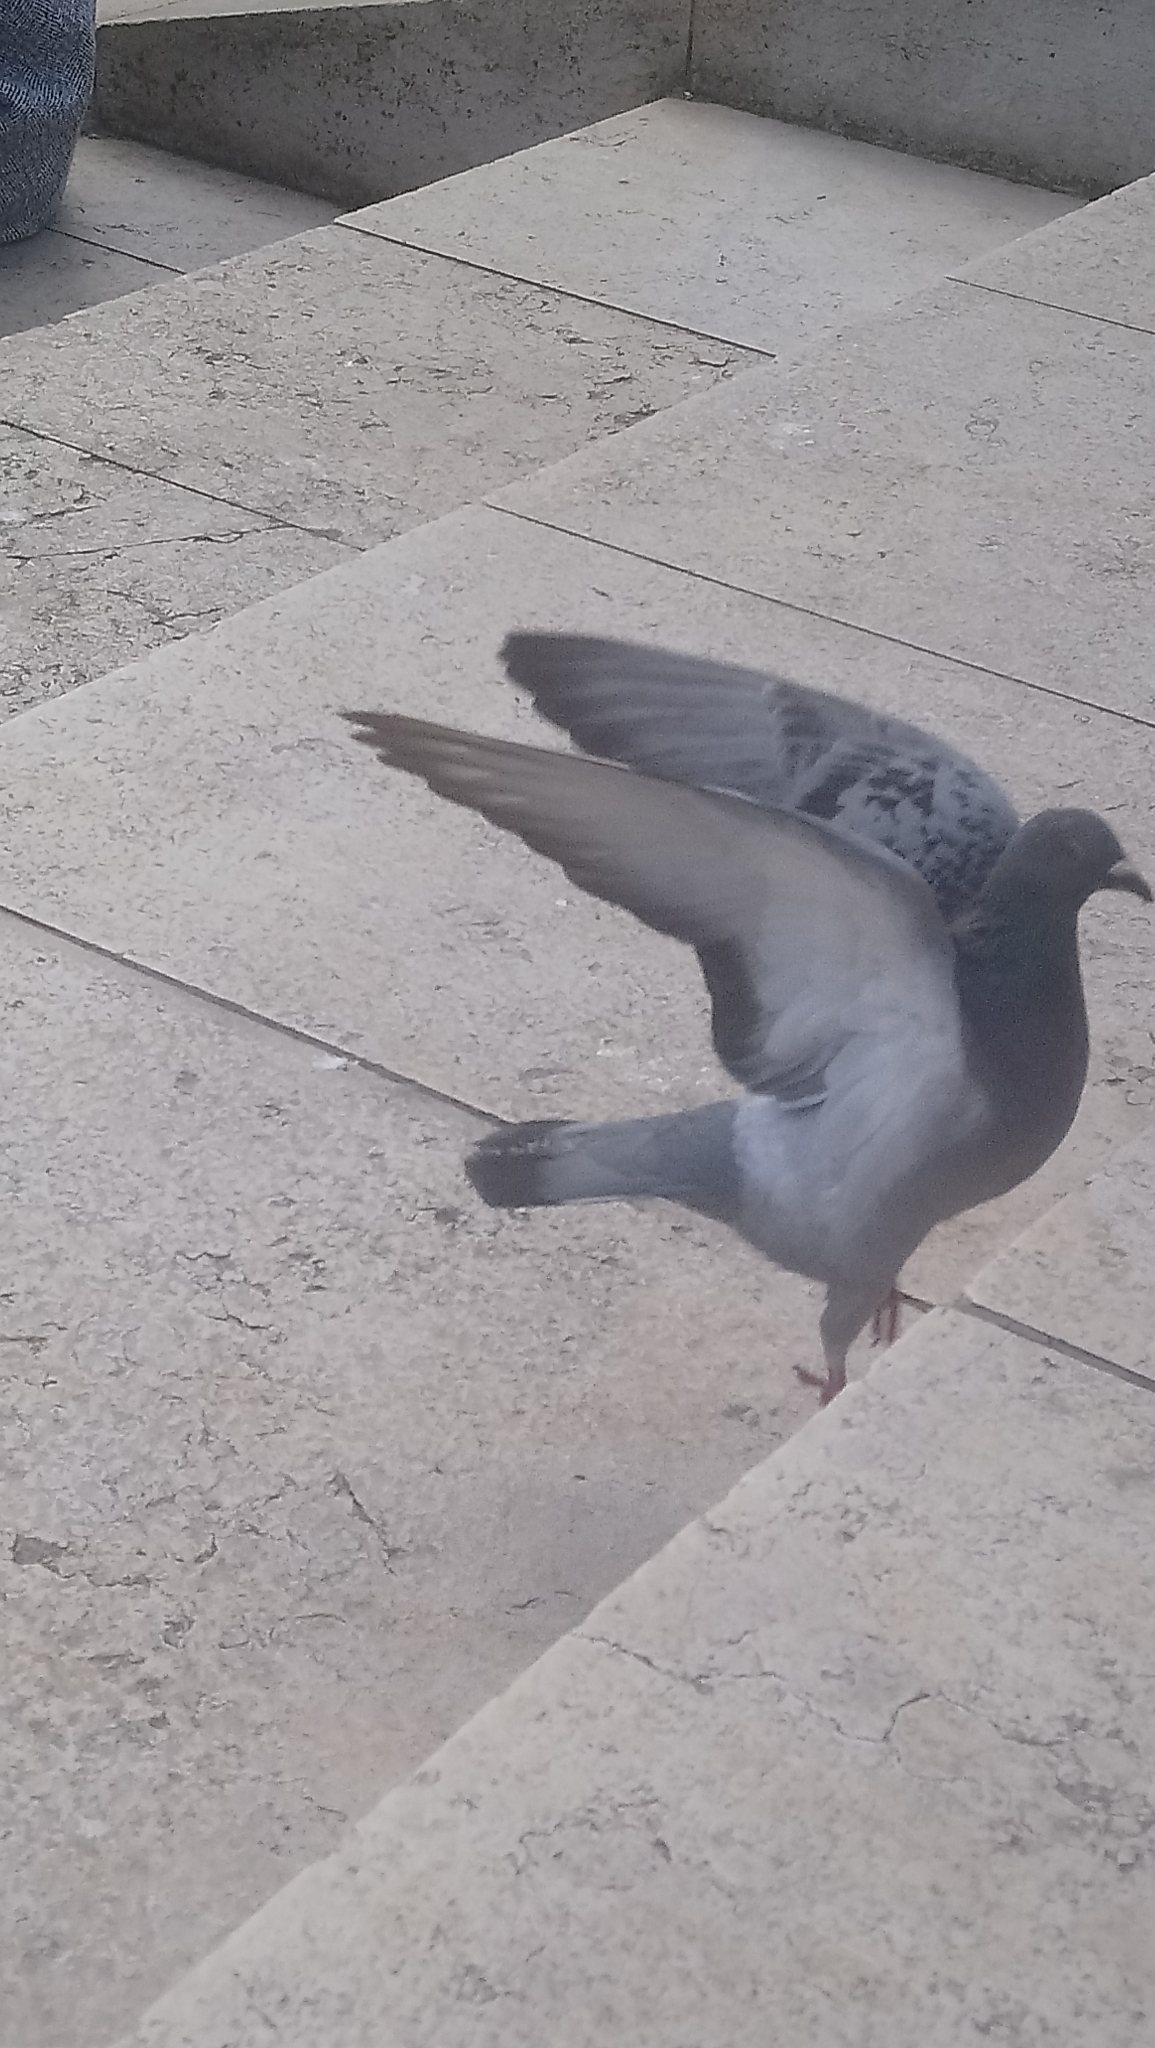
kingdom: Animalia
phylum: Chordata
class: Aves
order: Columbiformes
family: Columbidae
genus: Columba
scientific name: Columba livia
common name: Rock pigeon
